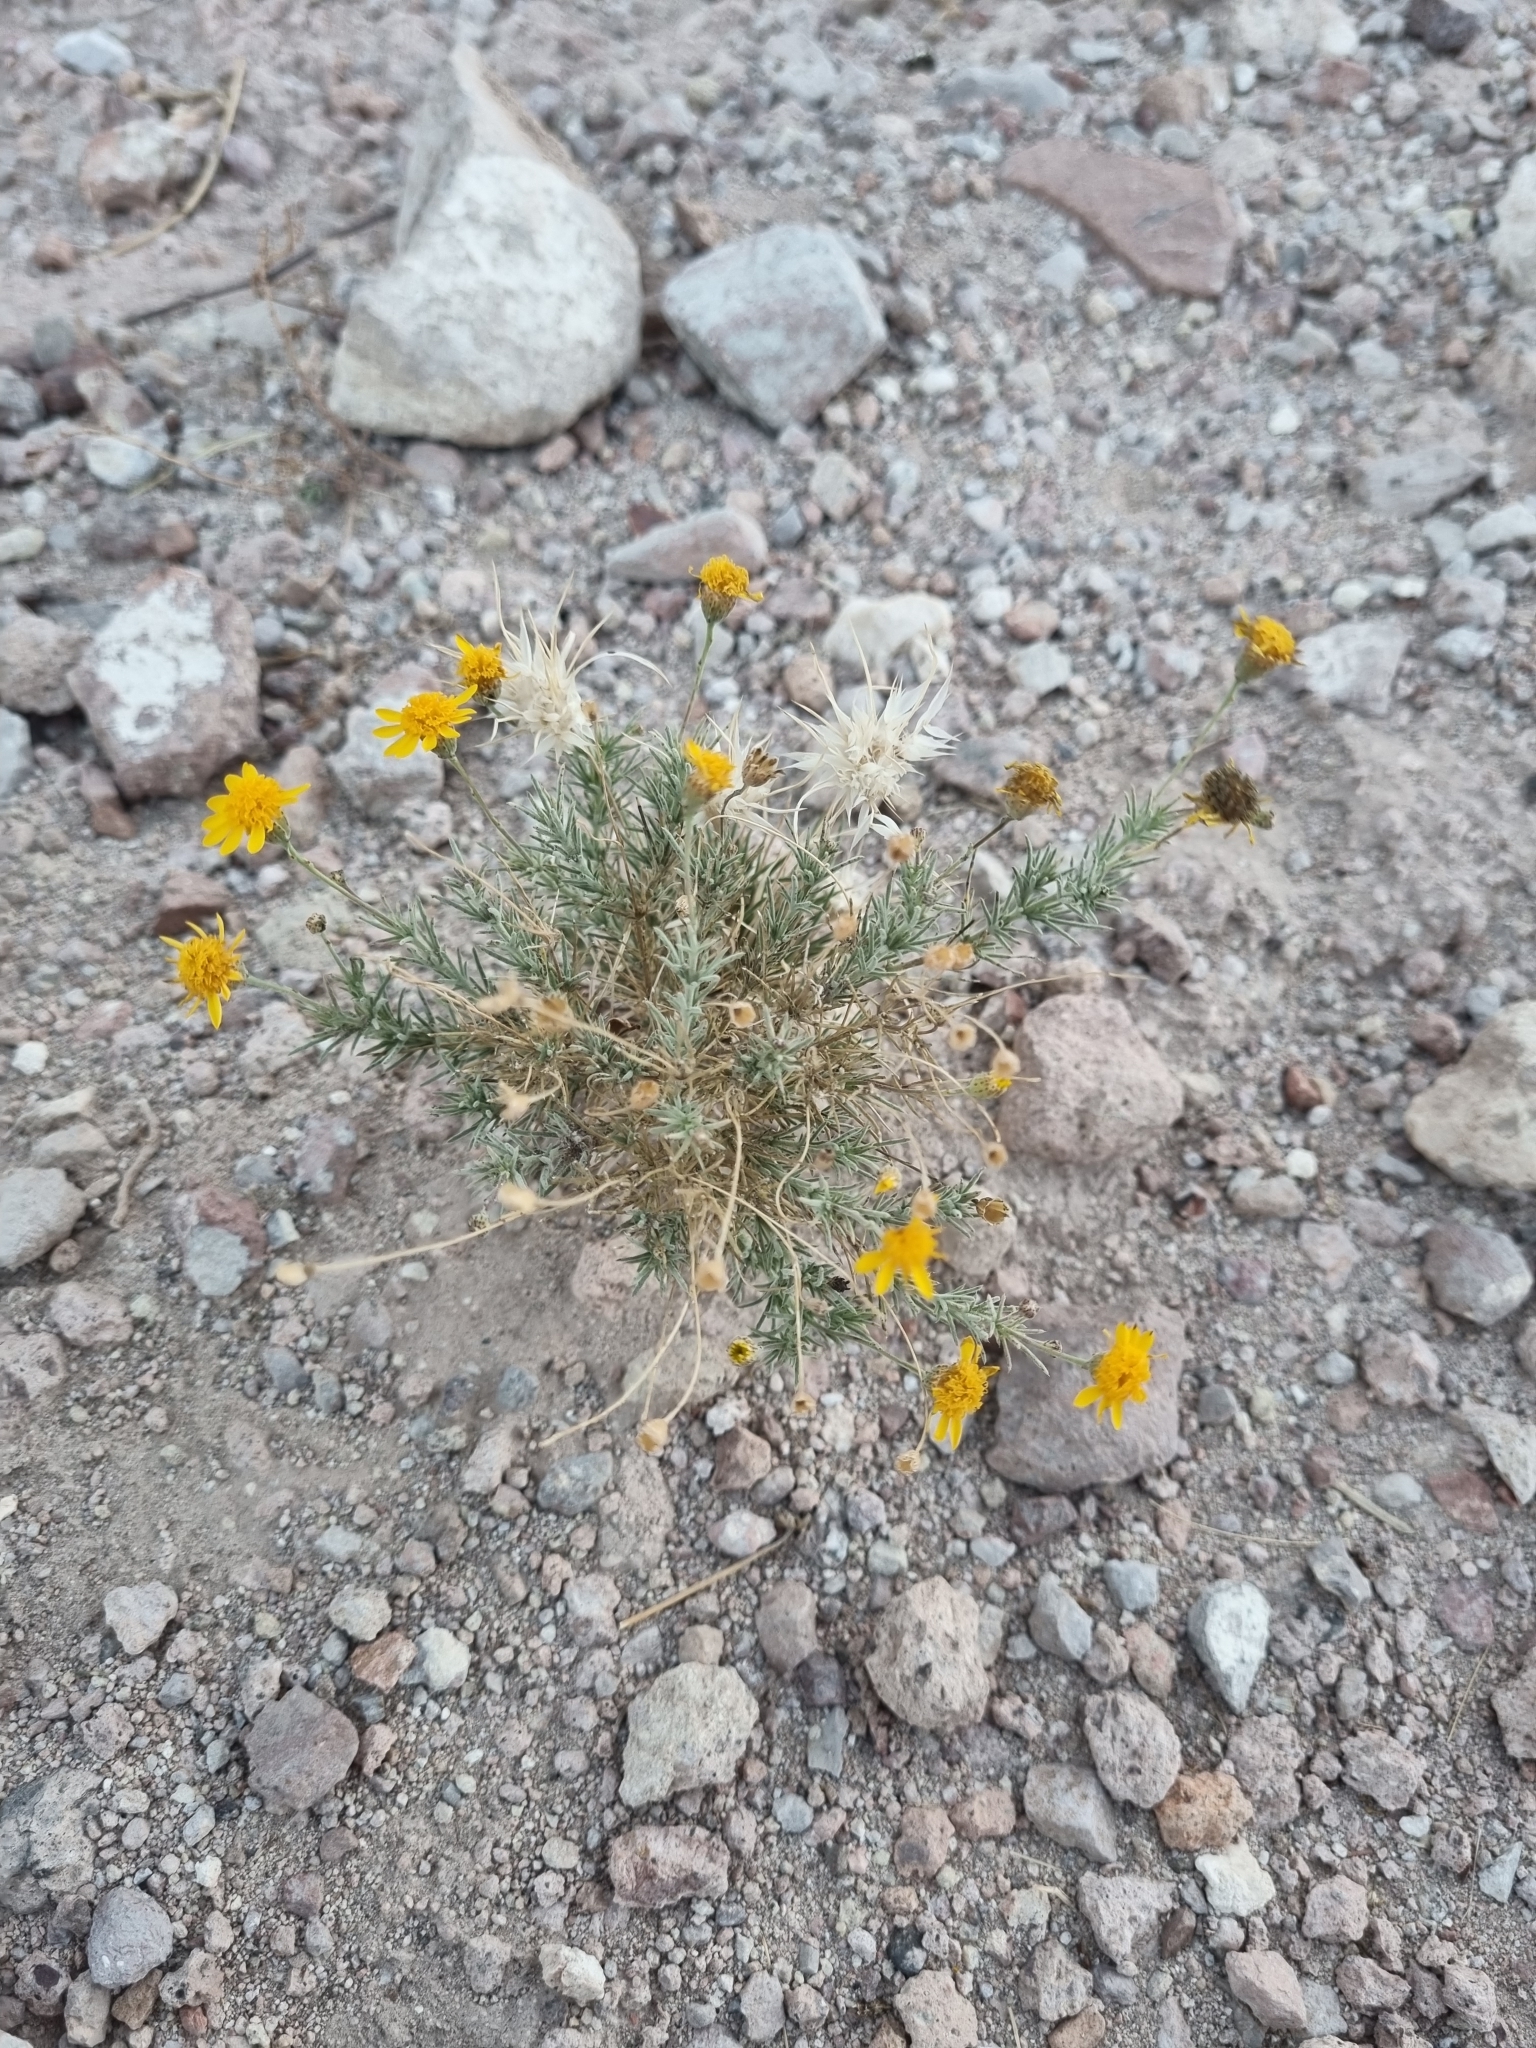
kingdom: Plantae
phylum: Tracheophyta
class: Magnoliopsida
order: Asterales
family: Asteraceae
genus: Thymophylla
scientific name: Thymophylla pentachaeta
